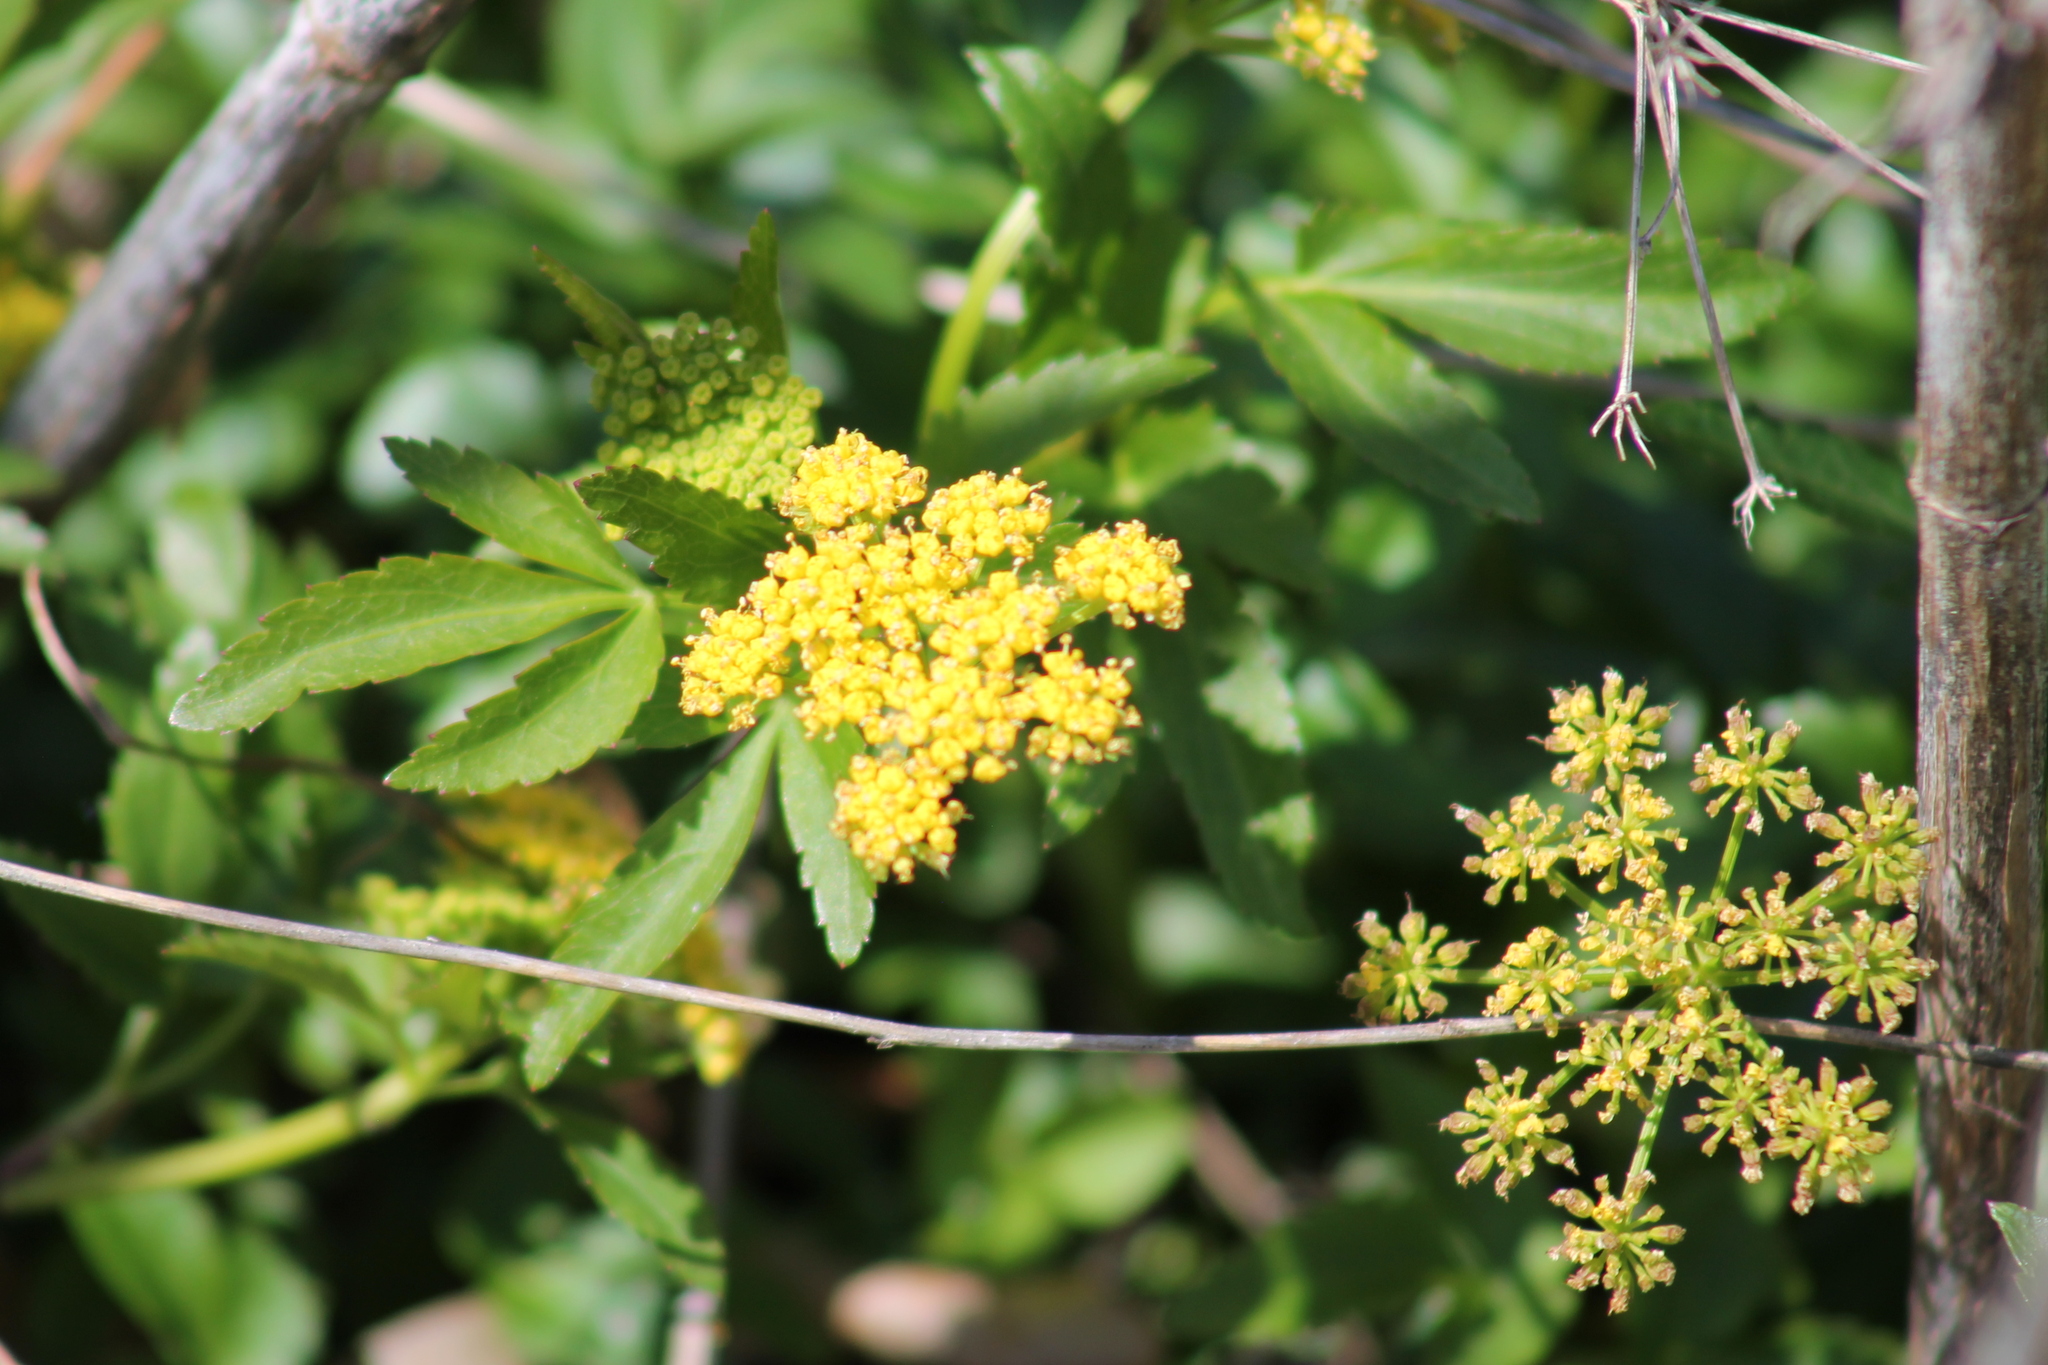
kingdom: Plantae
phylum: Tracheophyta
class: Magnoliopsida
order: Apiales
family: Apiaceae
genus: Zizia
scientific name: Zizia aurea
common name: Golden alexanders
